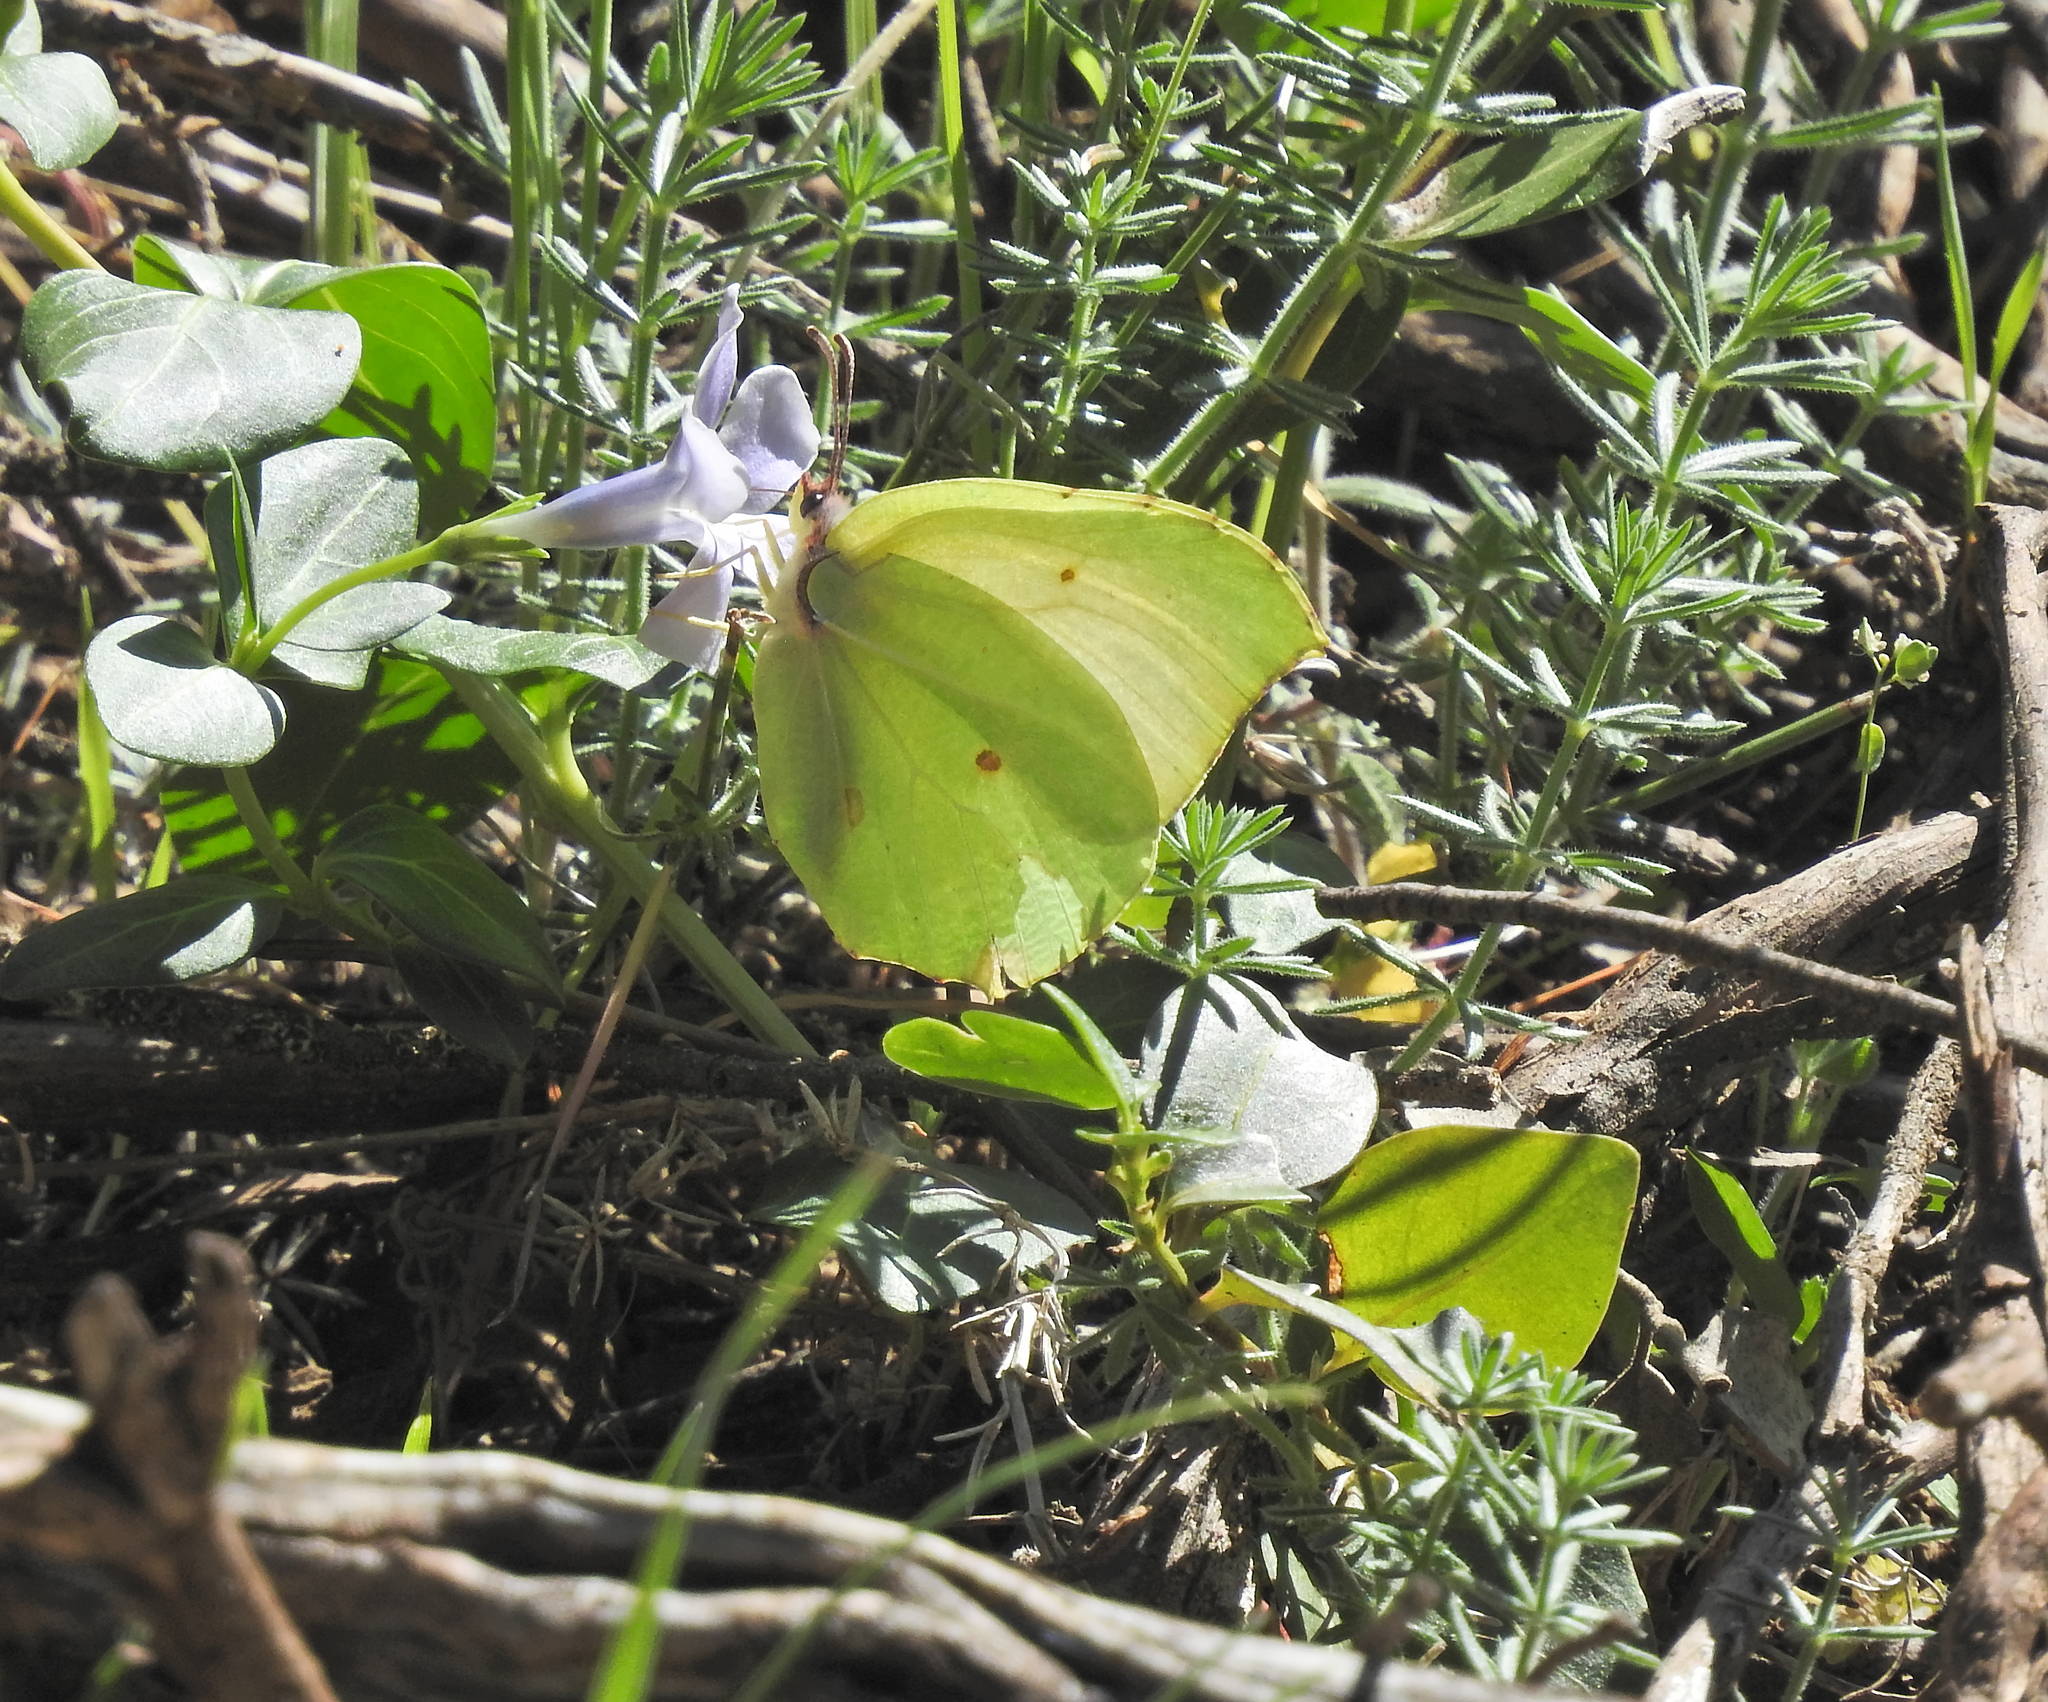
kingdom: Animalia
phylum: Arthropoda
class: Insecta
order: Lepidoptera
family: Pieridae
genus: Gonepteryx
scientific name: Gonepteryx cleopatra
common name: Cleopatra
